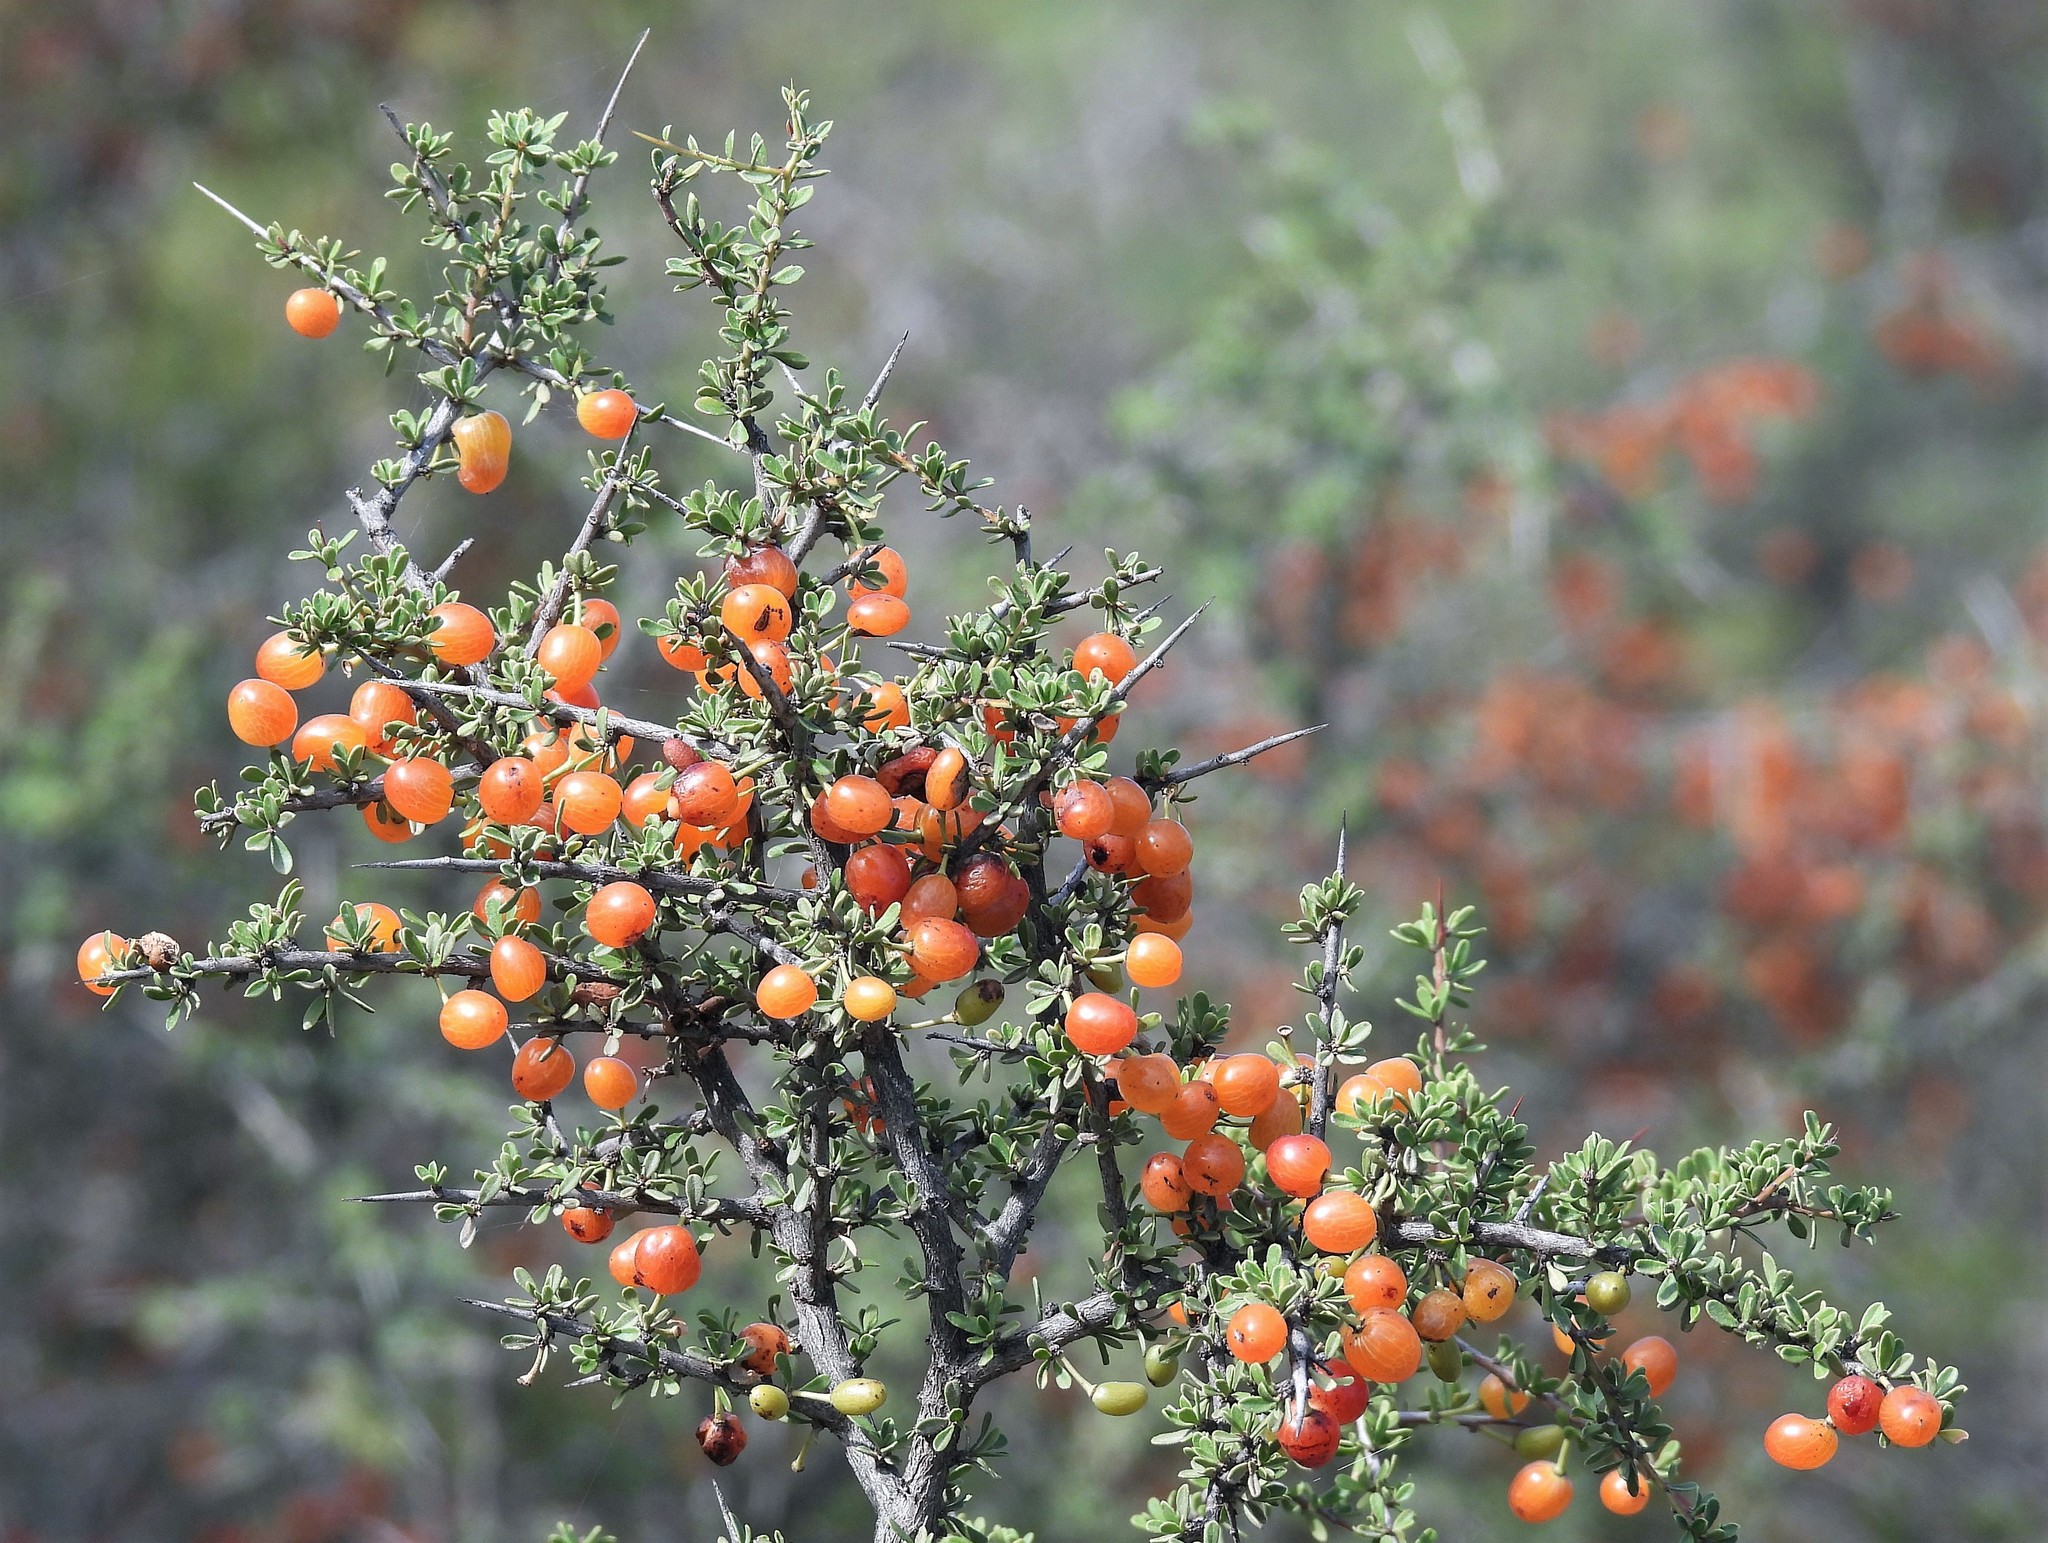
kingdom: Plantae
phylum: Tracheophyta
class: Magnoliopsida
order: Rosales
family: Rhamnaceae
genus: Condalia
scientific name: Condalia microphylla
